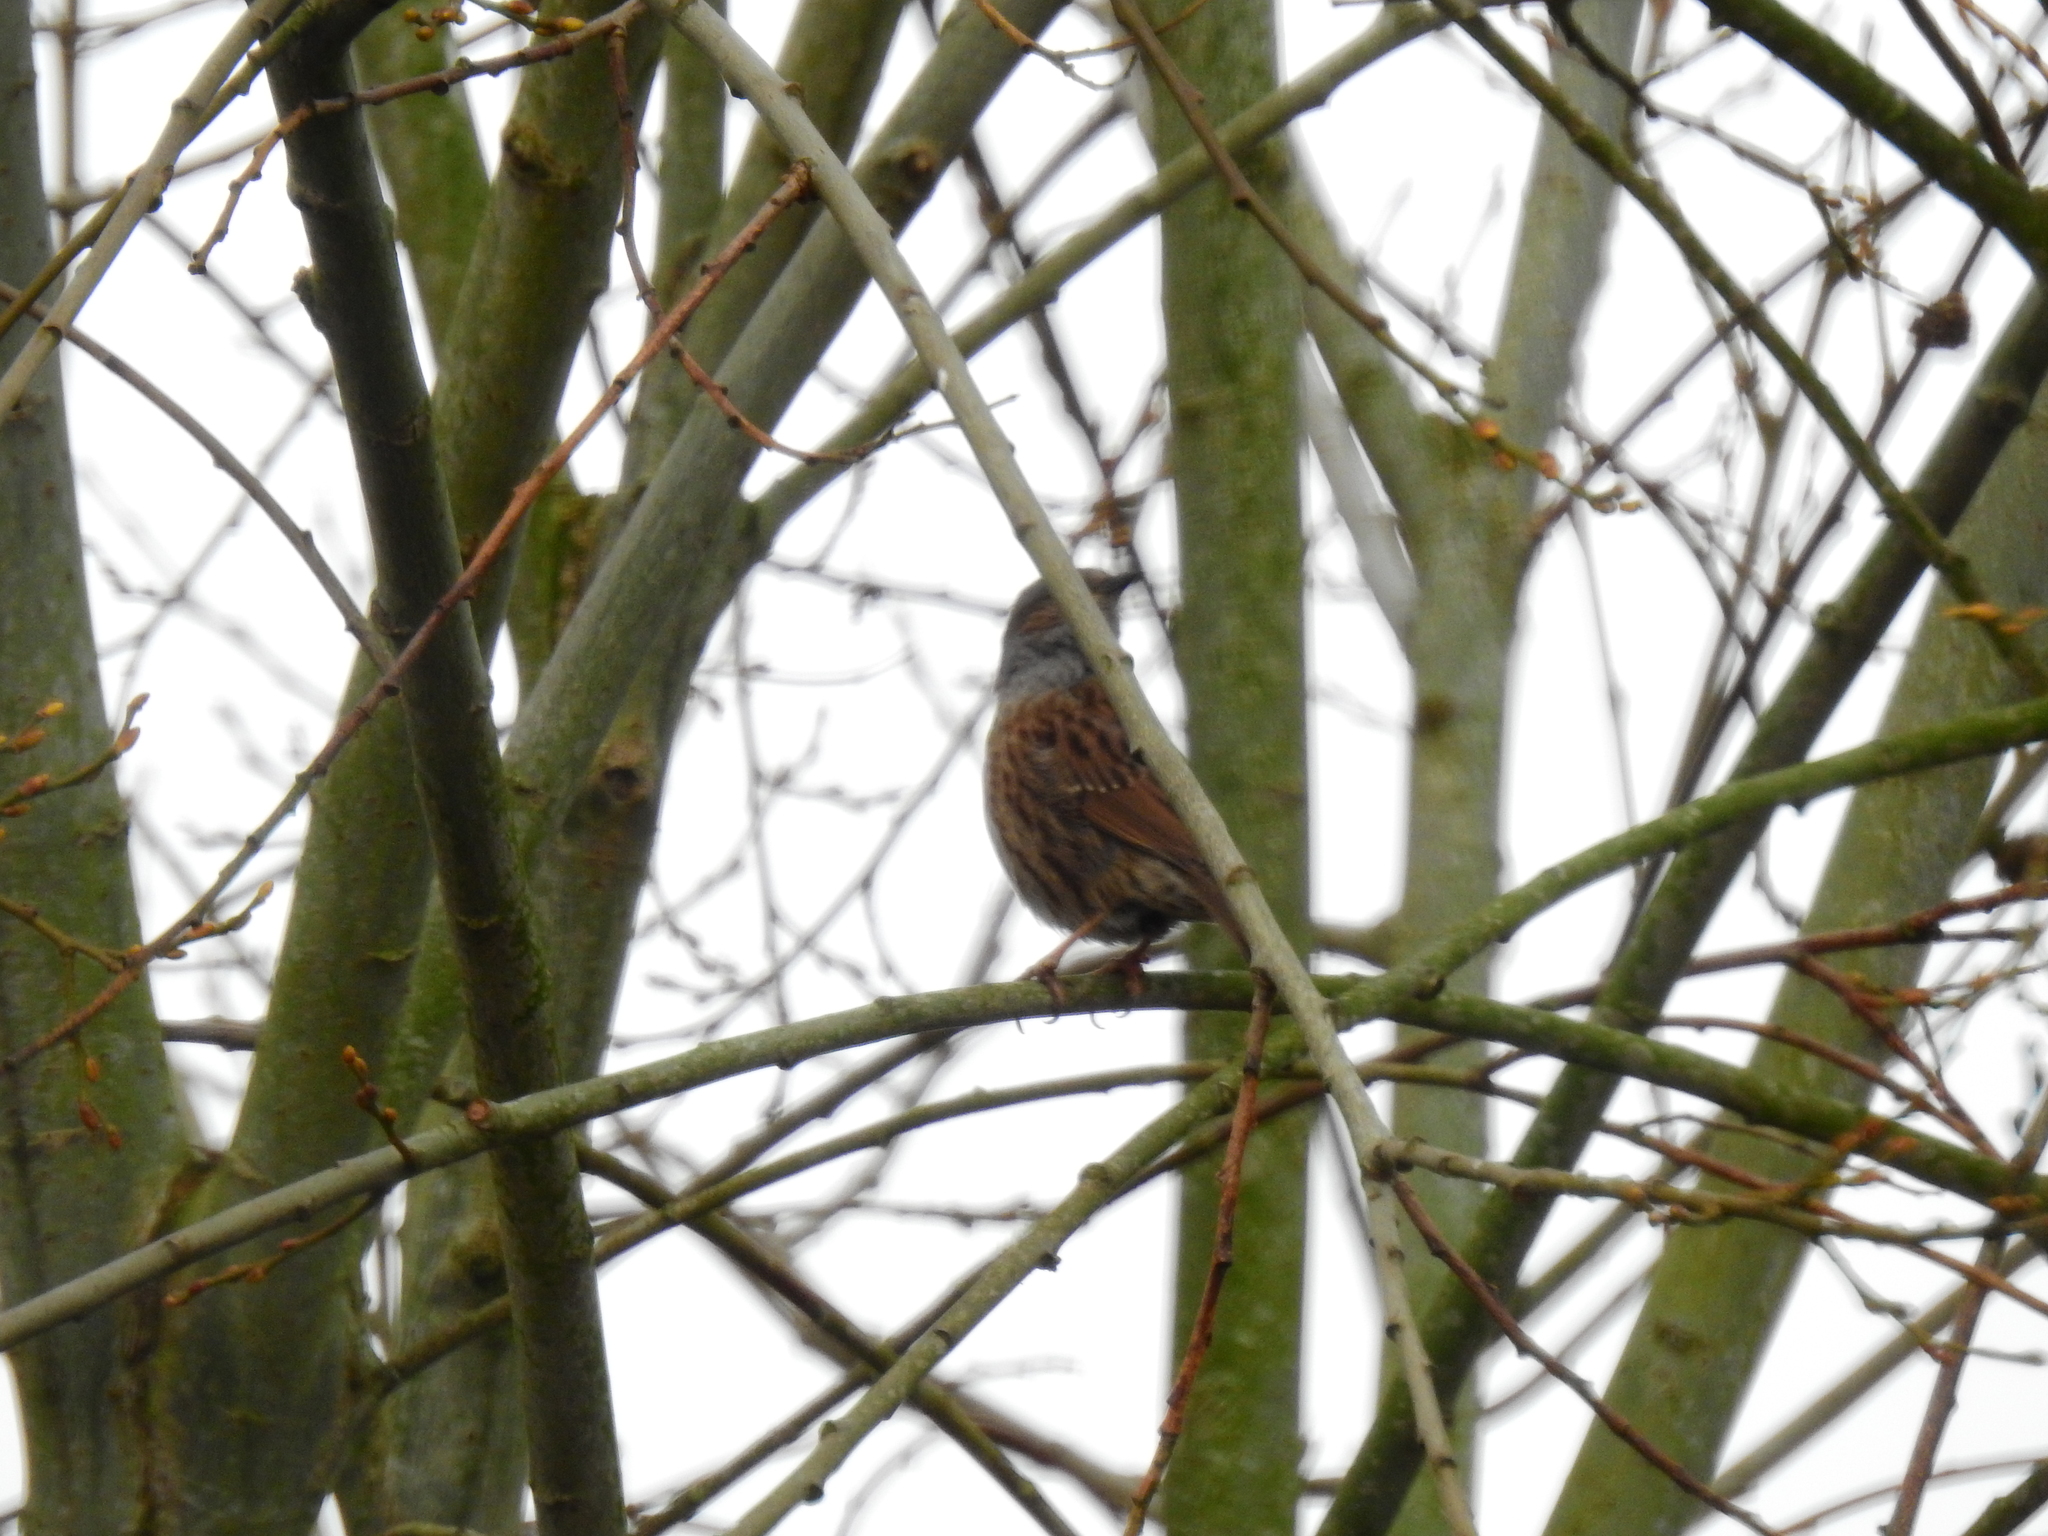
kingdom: Animalia
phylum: Chordata
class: Aves
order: Passeriformes
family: Prunellidae
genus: Prunella
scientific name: Prunella modularis
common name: Dunnock
